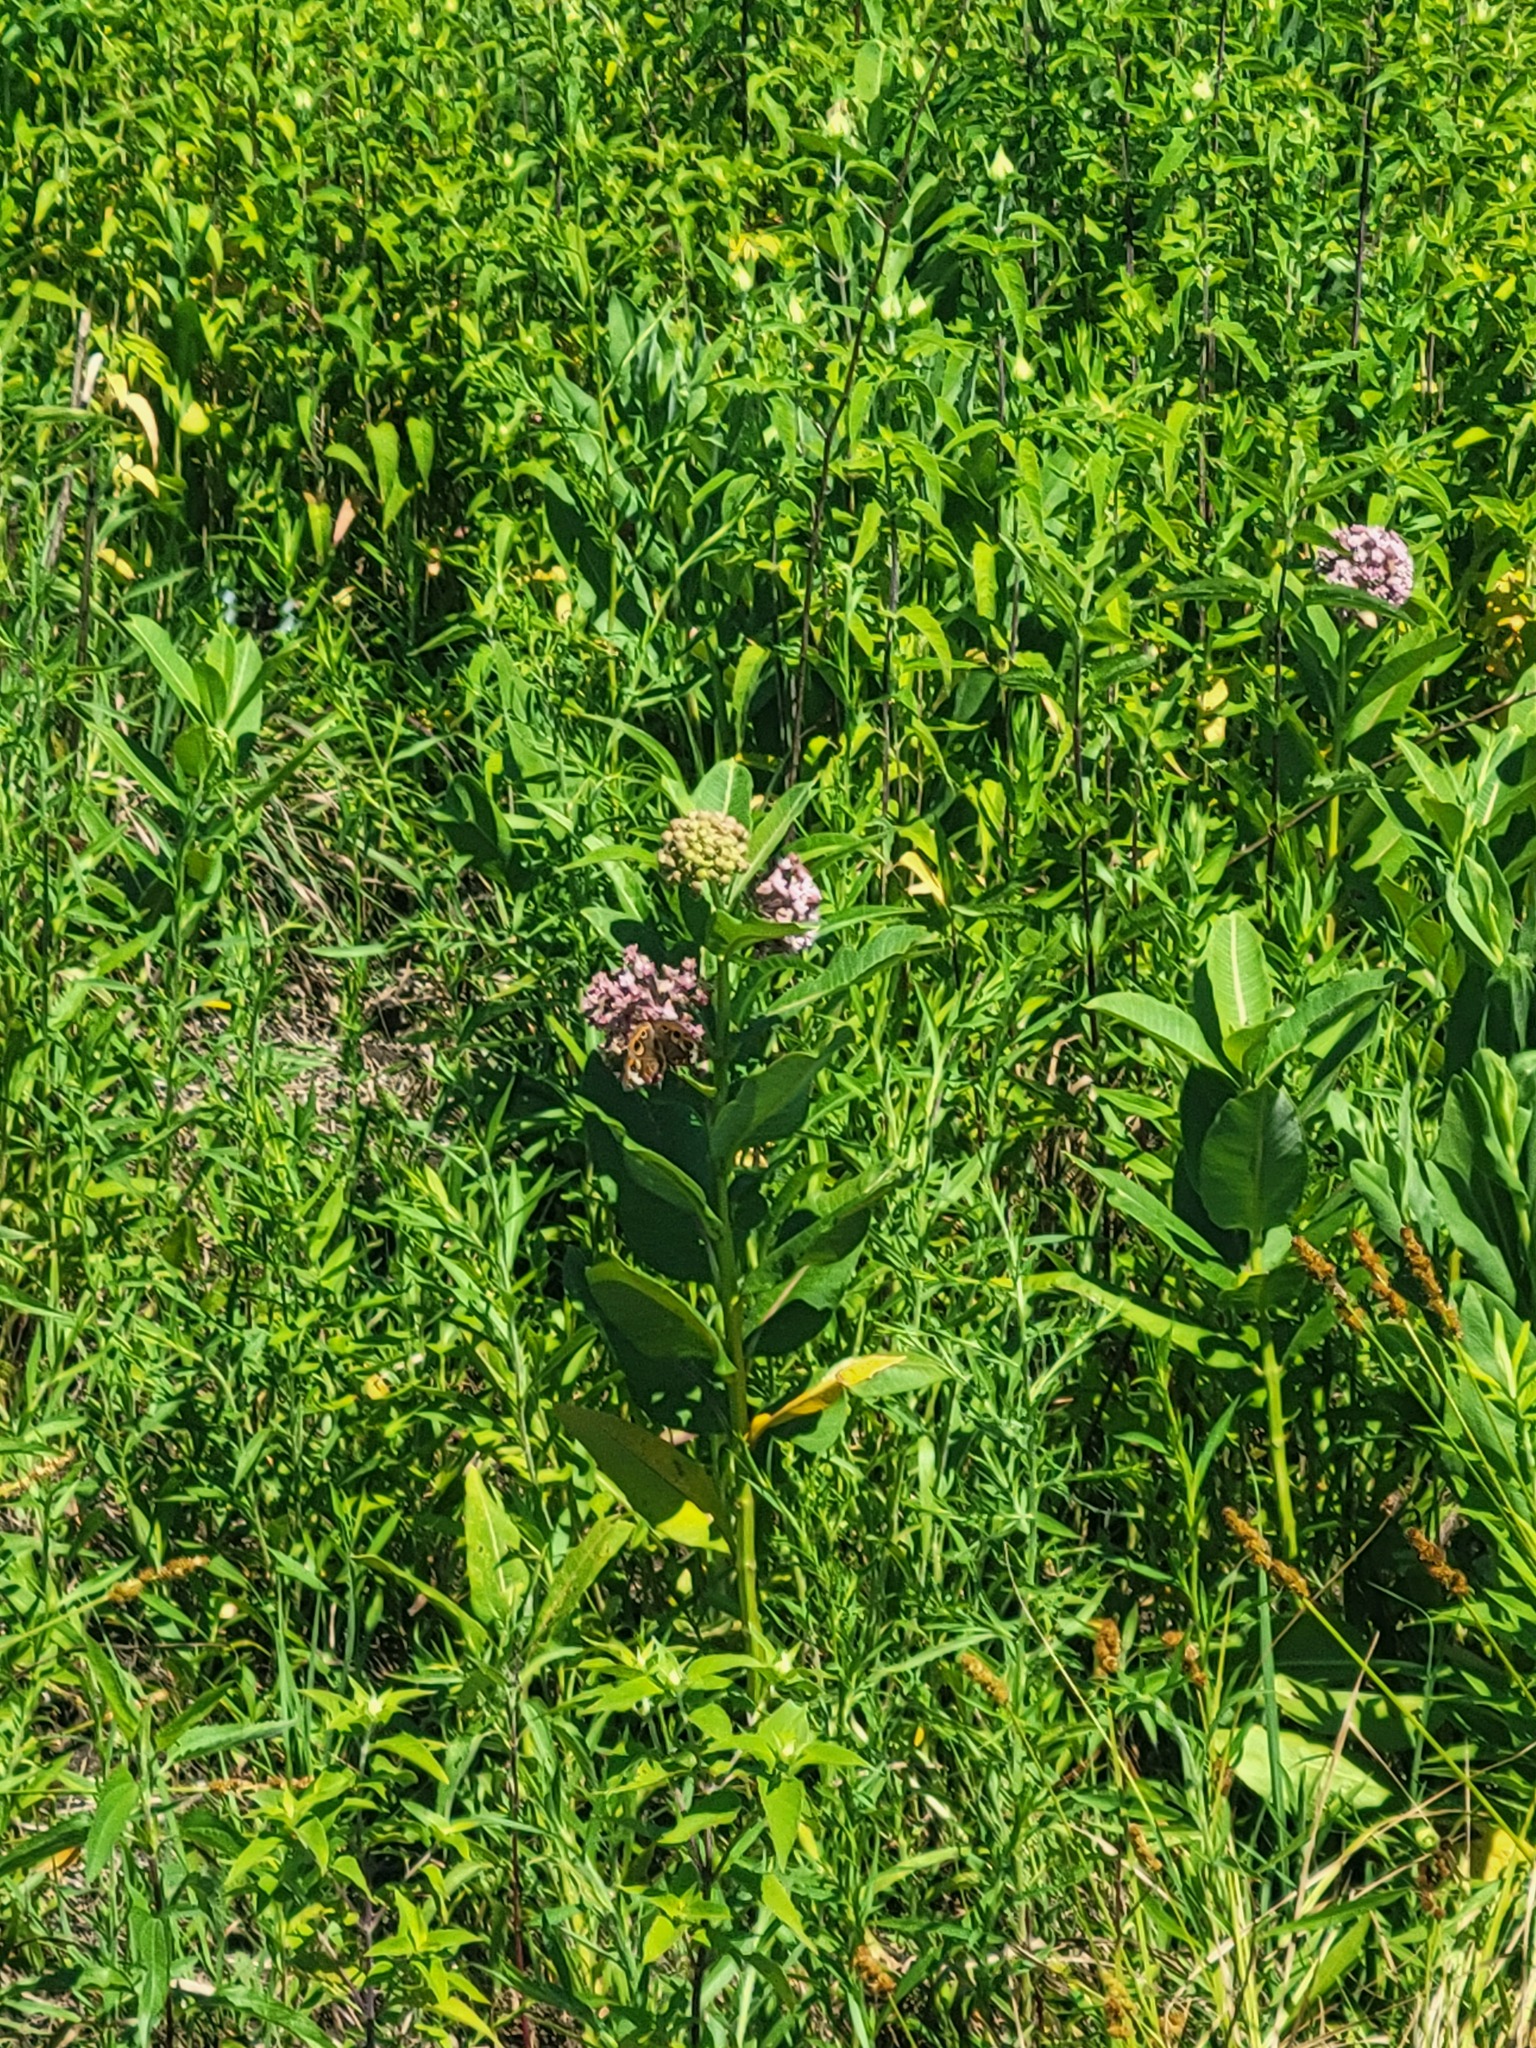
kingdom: Animalia
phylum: Arthropoda
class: Insecta
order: Odonata
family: Libellulidae
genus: Libellula
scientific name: Libellula luctuosa
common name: Widow skimmer
